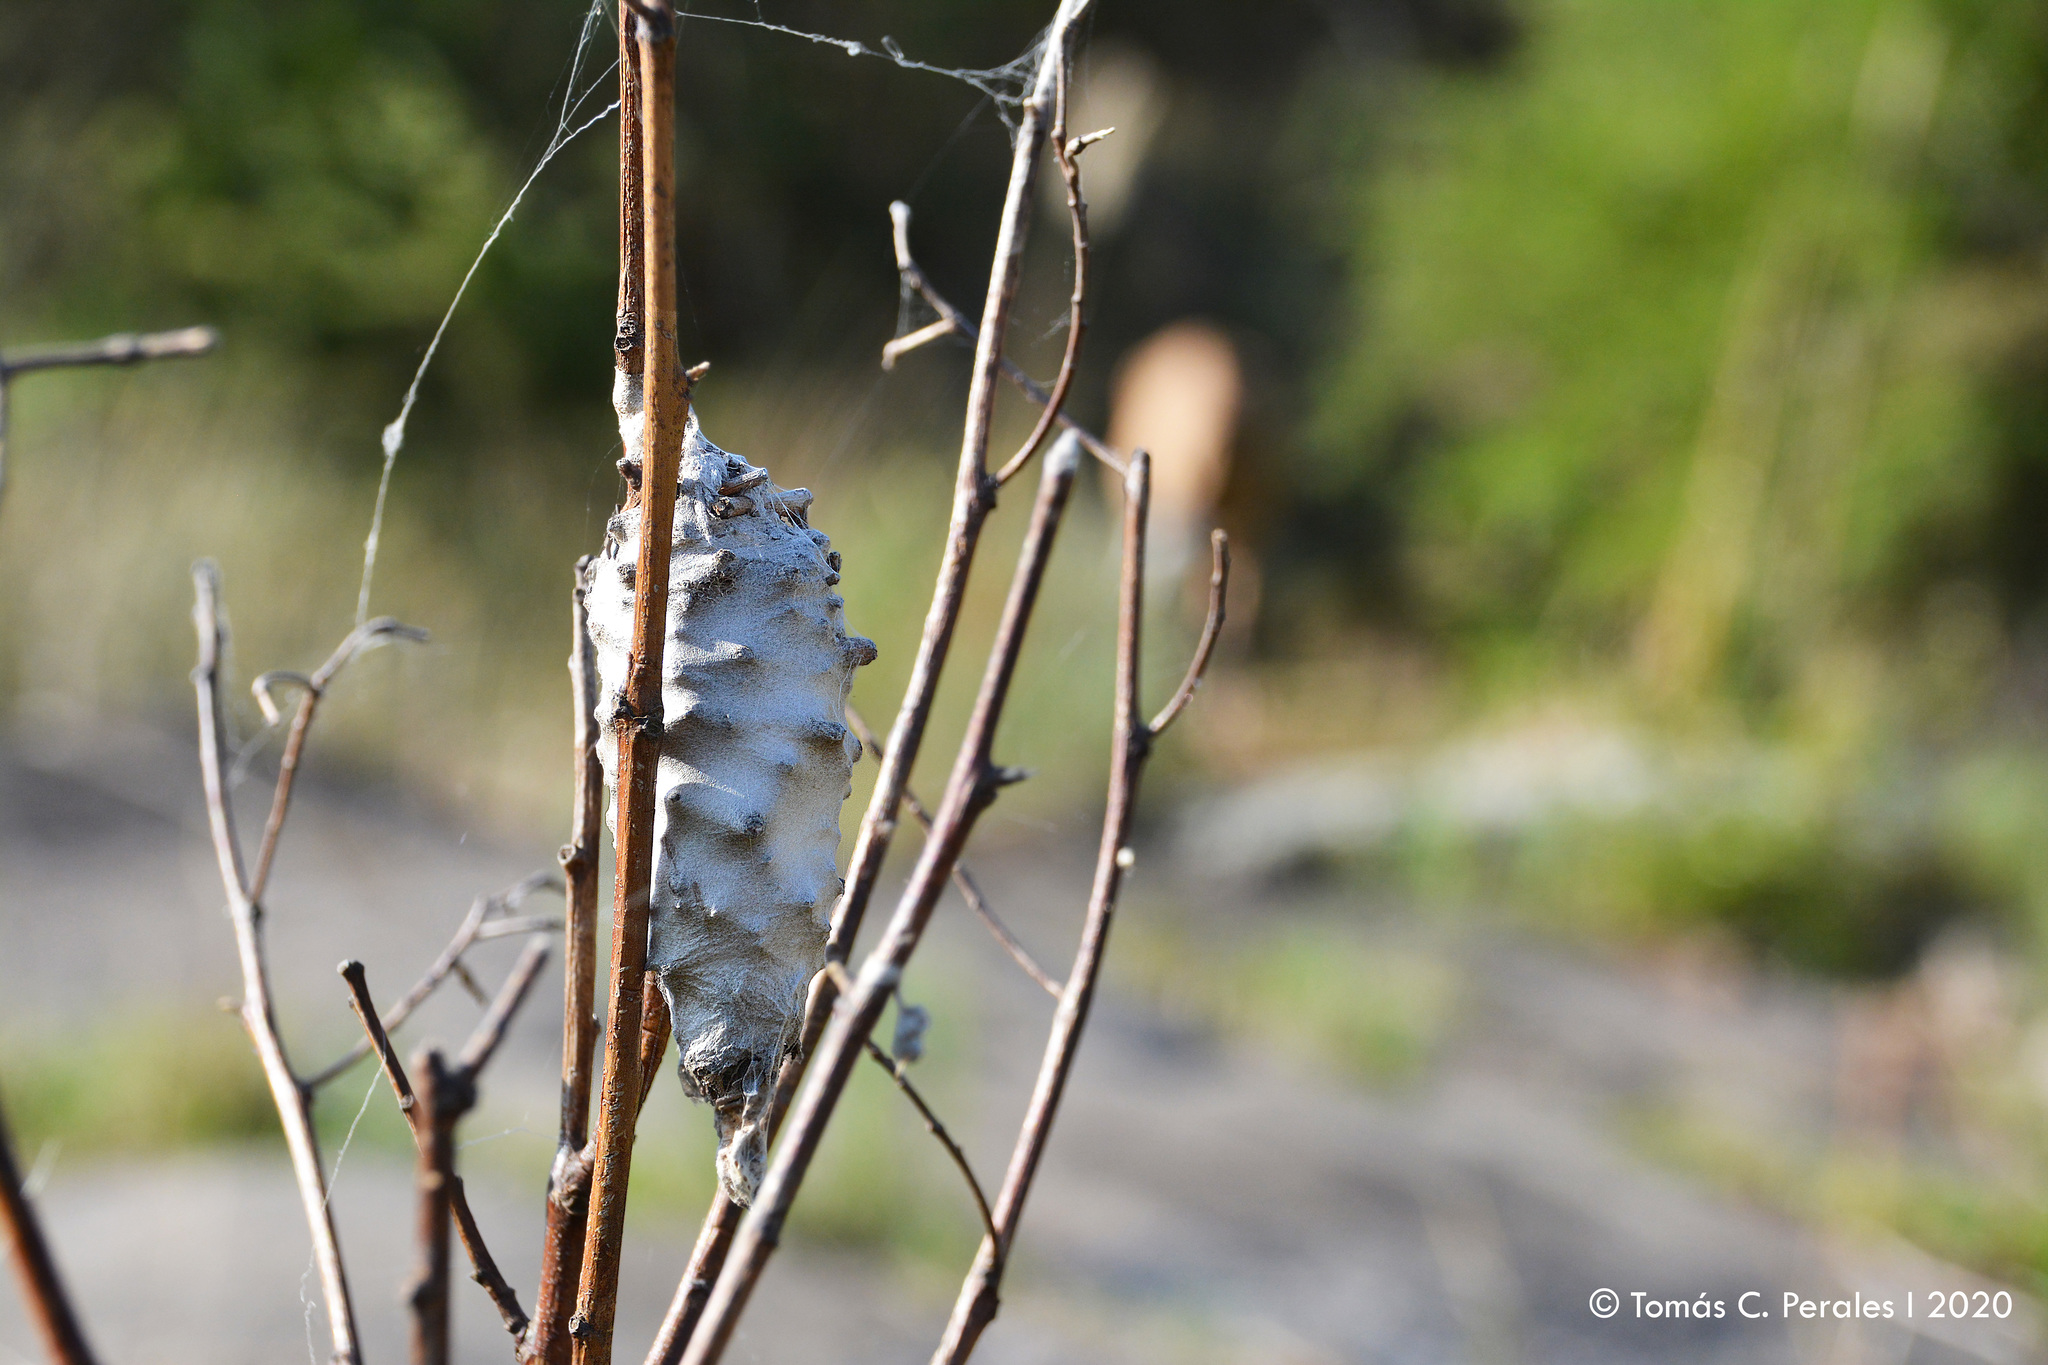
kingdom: Animalia
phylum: Arthropoda
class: Insecta
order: Lepidoptera
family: Psychidae
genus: Oiketicus
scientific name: Oiketicus
